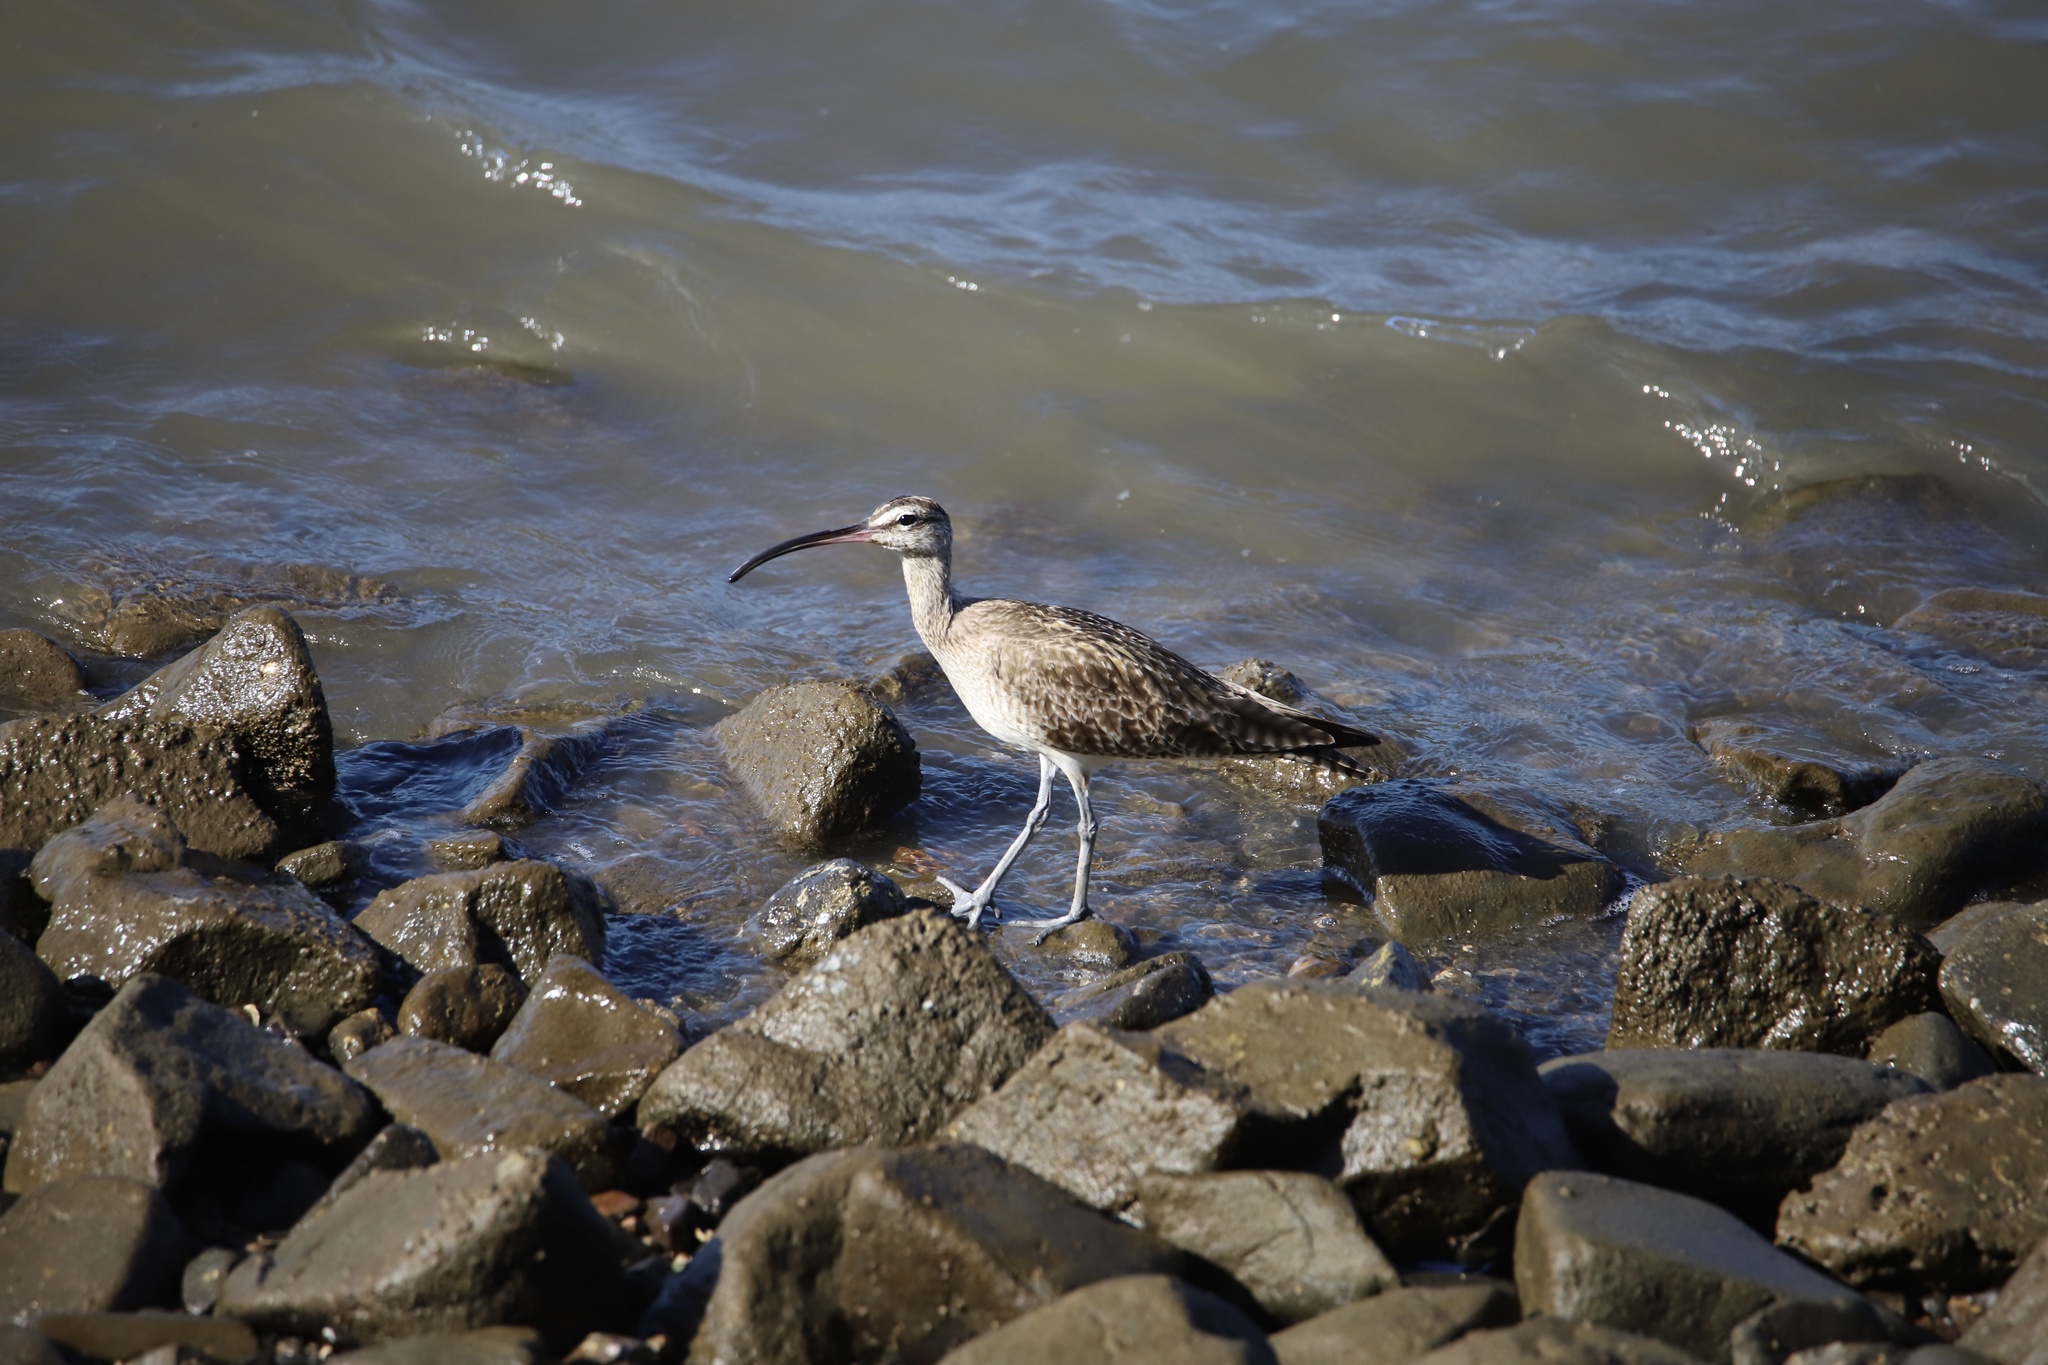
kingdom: Animalia
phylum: Chordata
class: Aves
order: Charadriiformes
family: Scolopacidae
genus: Numenius
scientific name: Numenius phaeopus
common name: Whimbrel
